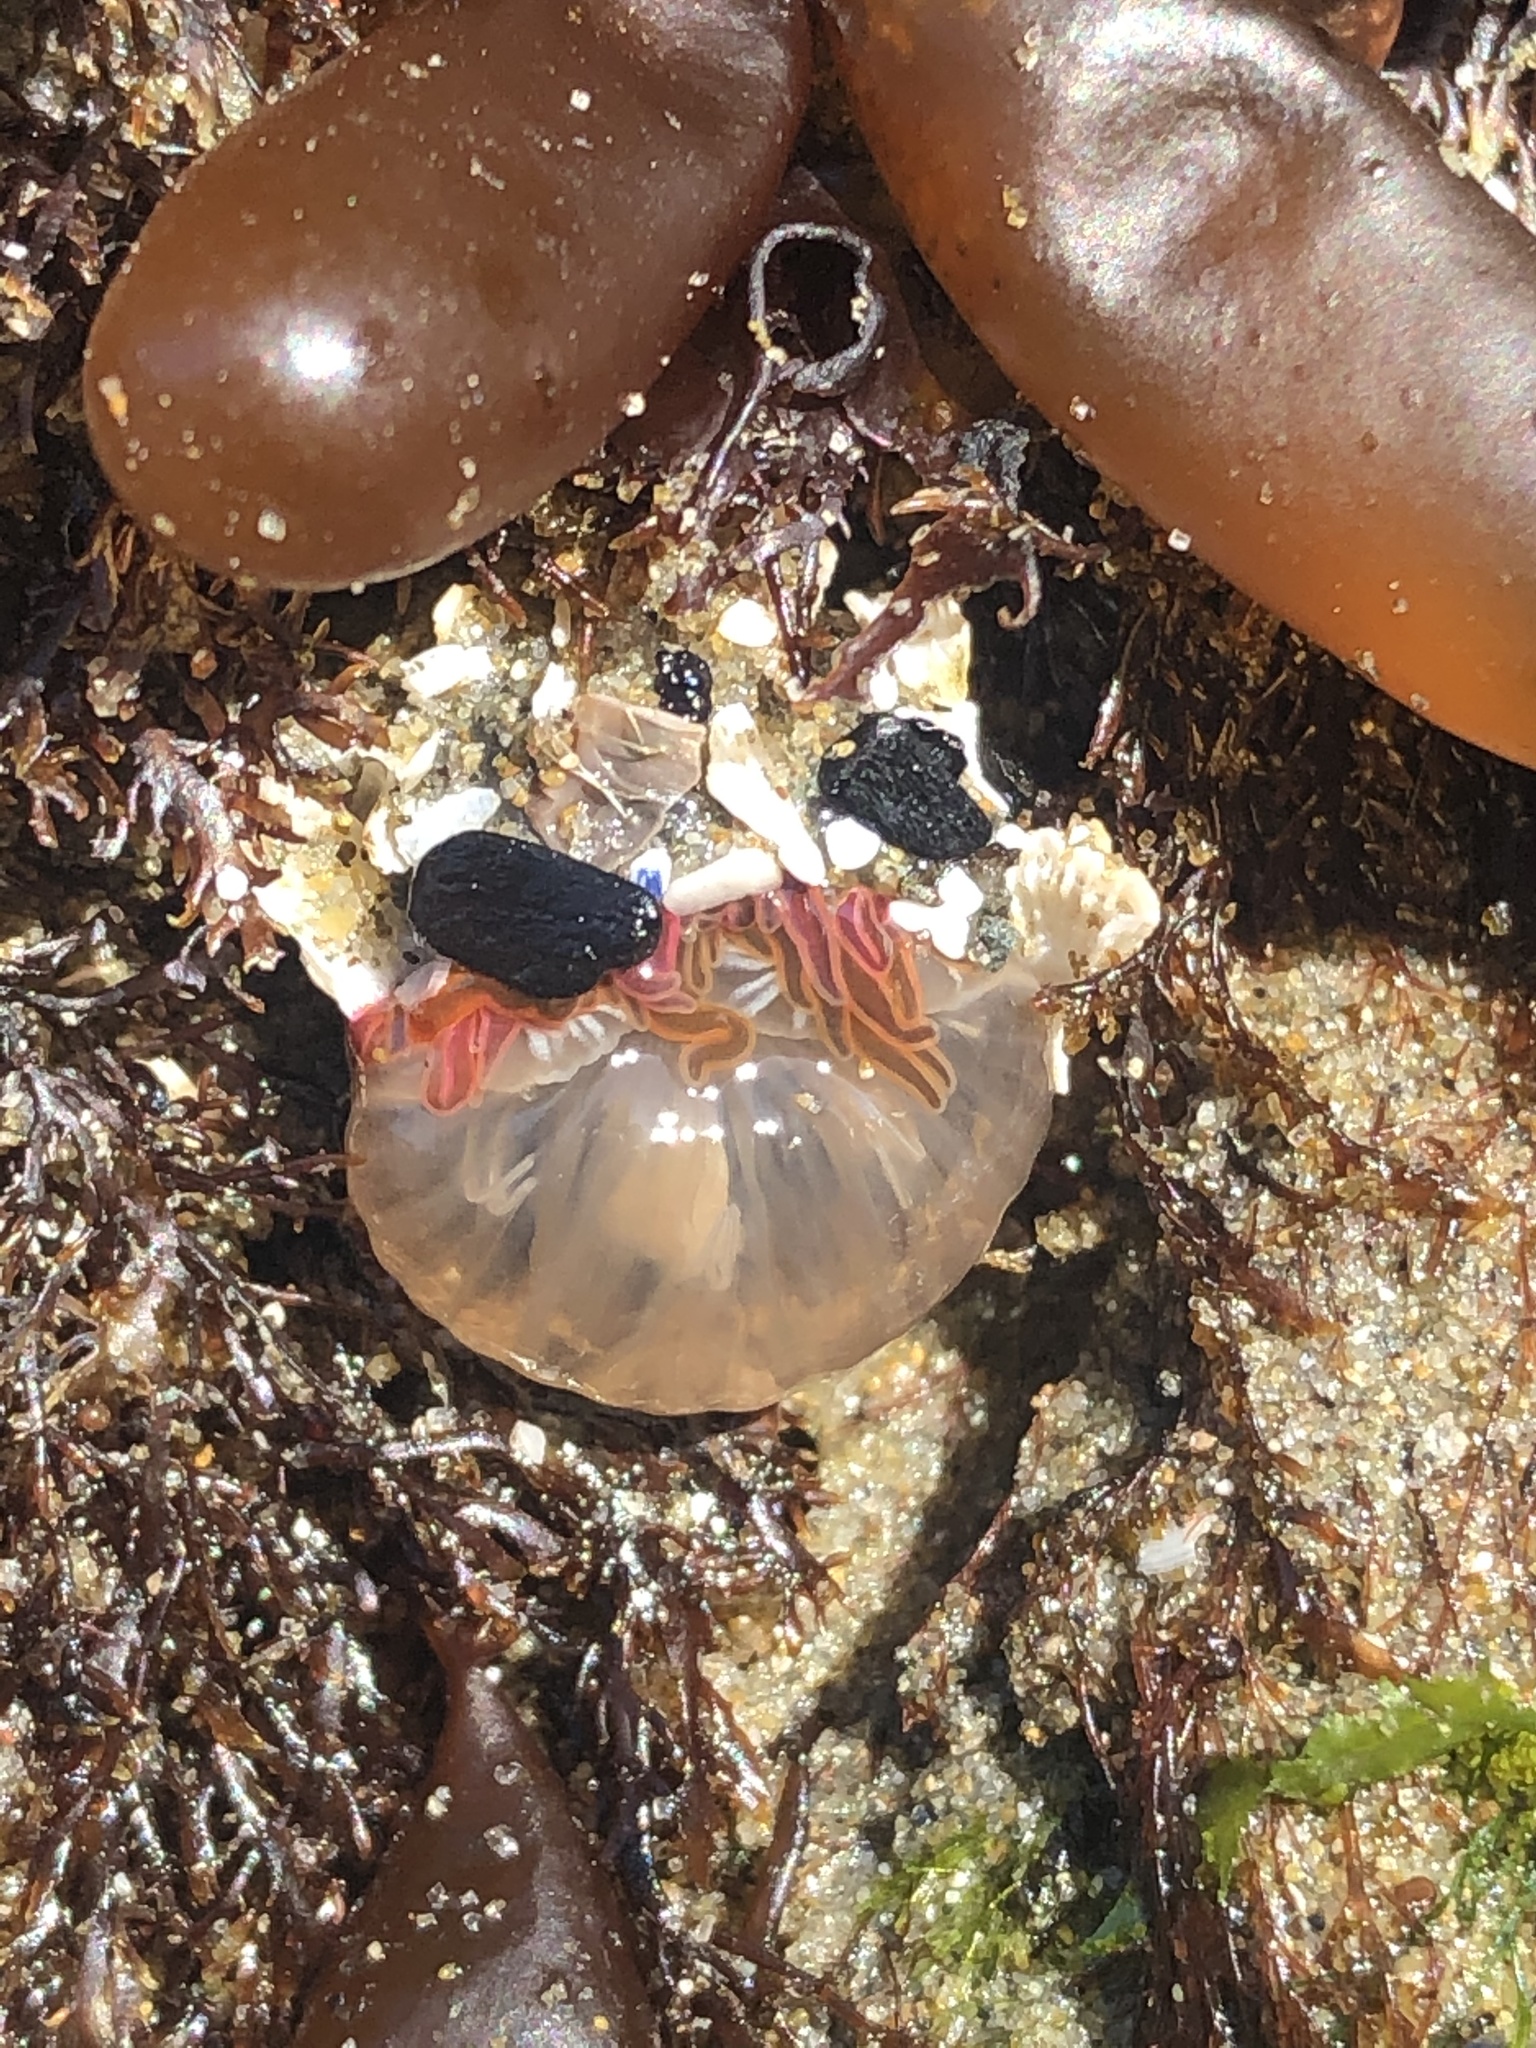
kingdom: Animalia
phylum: Cnidaria
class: Anthozoa
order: Actiniaria
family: Actiniidae
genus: Anthopleura
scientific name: Anthopleura artemisia
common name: Buried sea anemone
